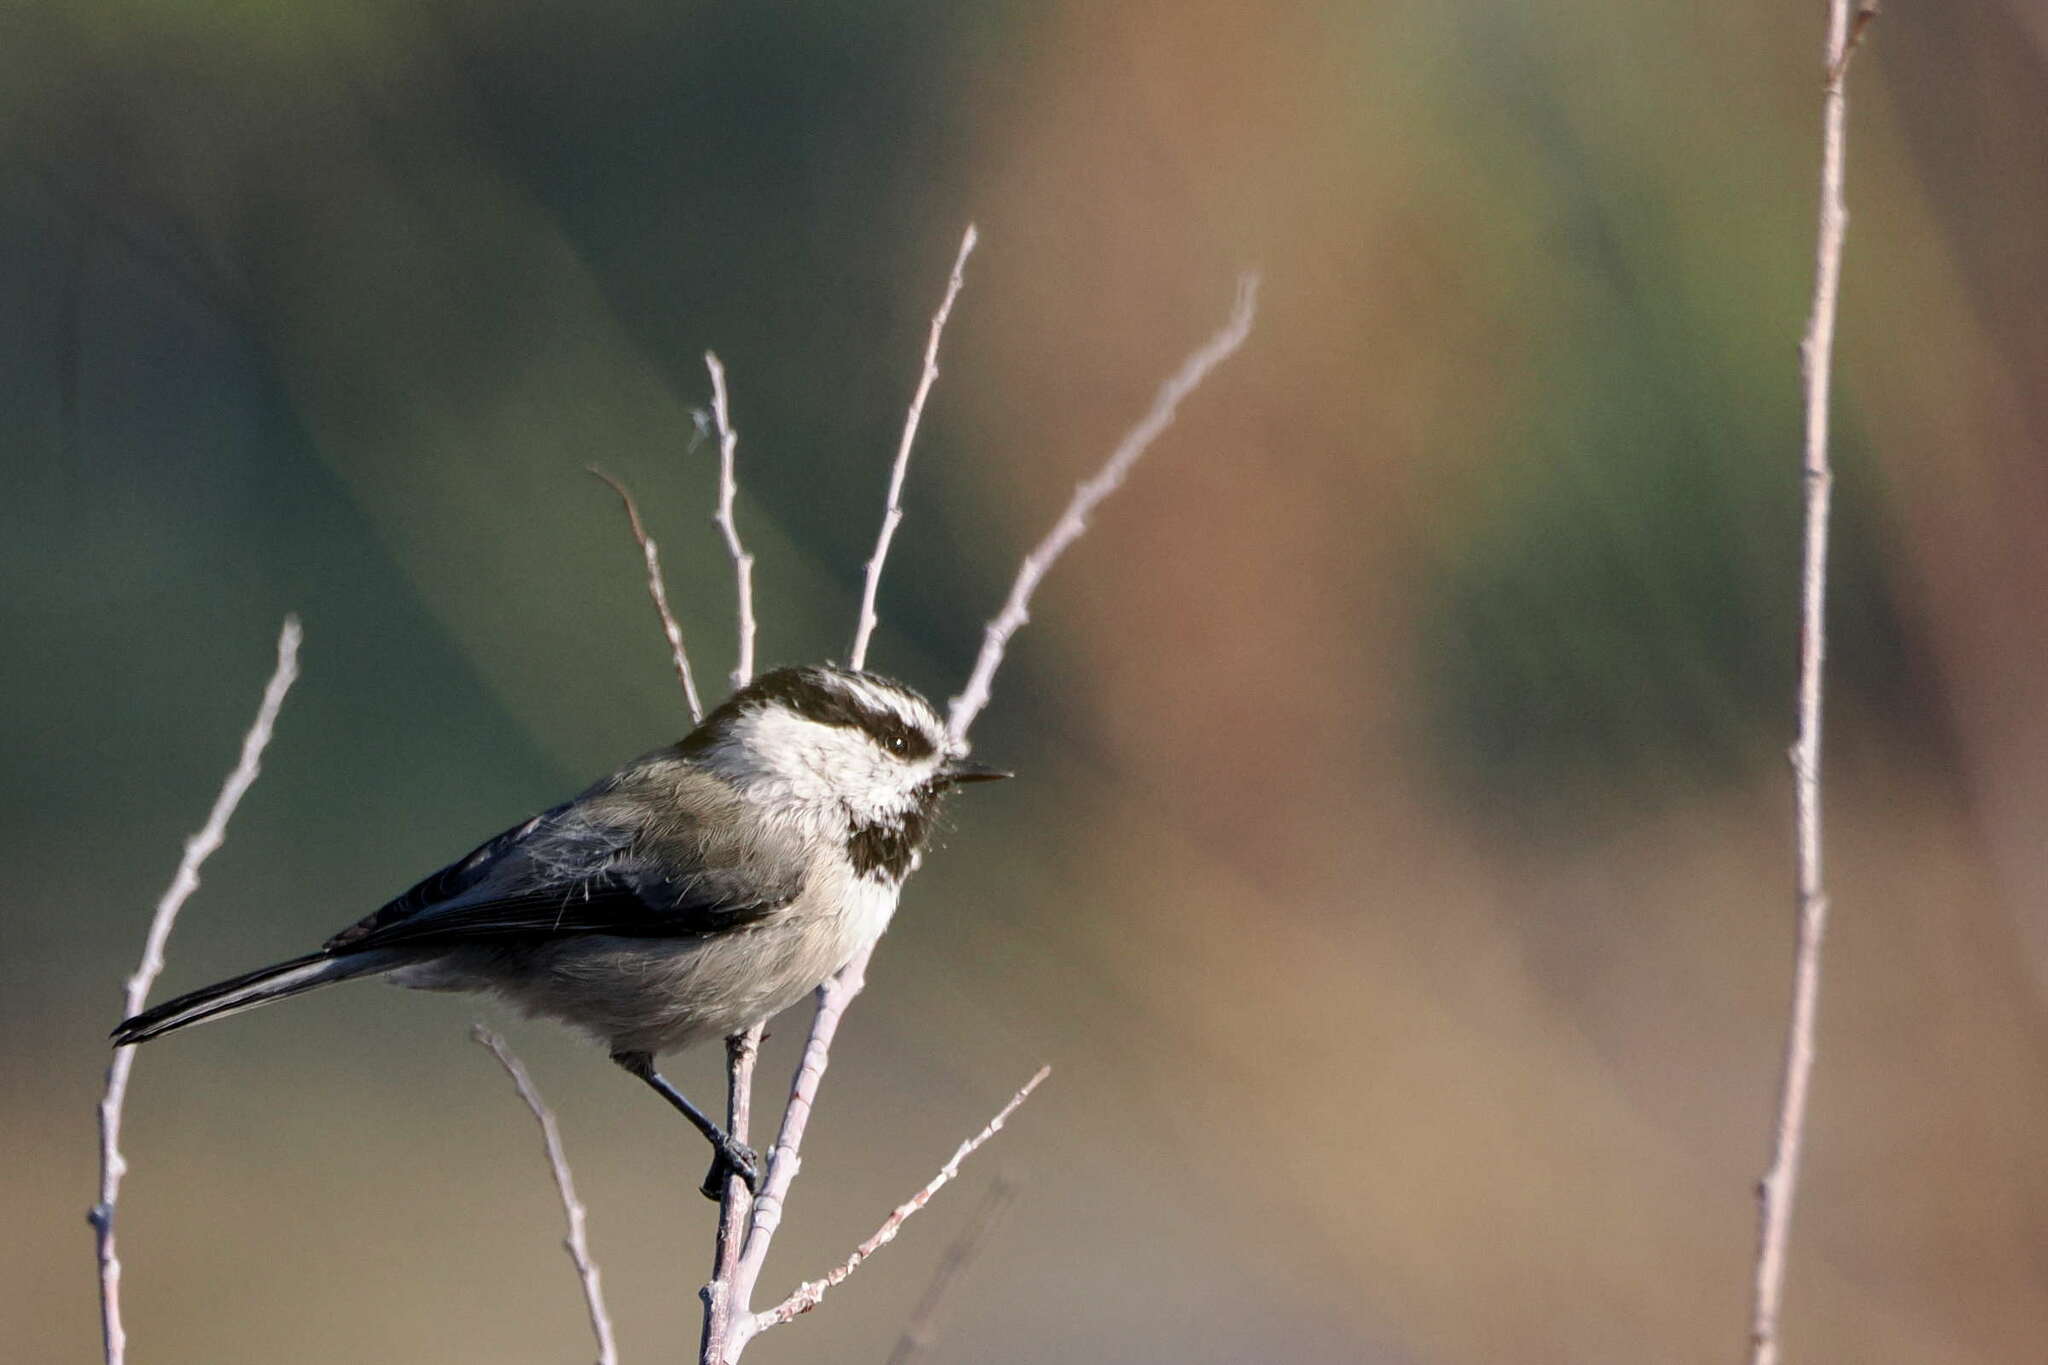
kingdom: Animalia
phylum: Chordata
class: Aves
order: Passeriformes
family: Paridae
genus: Poecile
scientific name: Poecile gambeli
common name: Mountain chickadee
